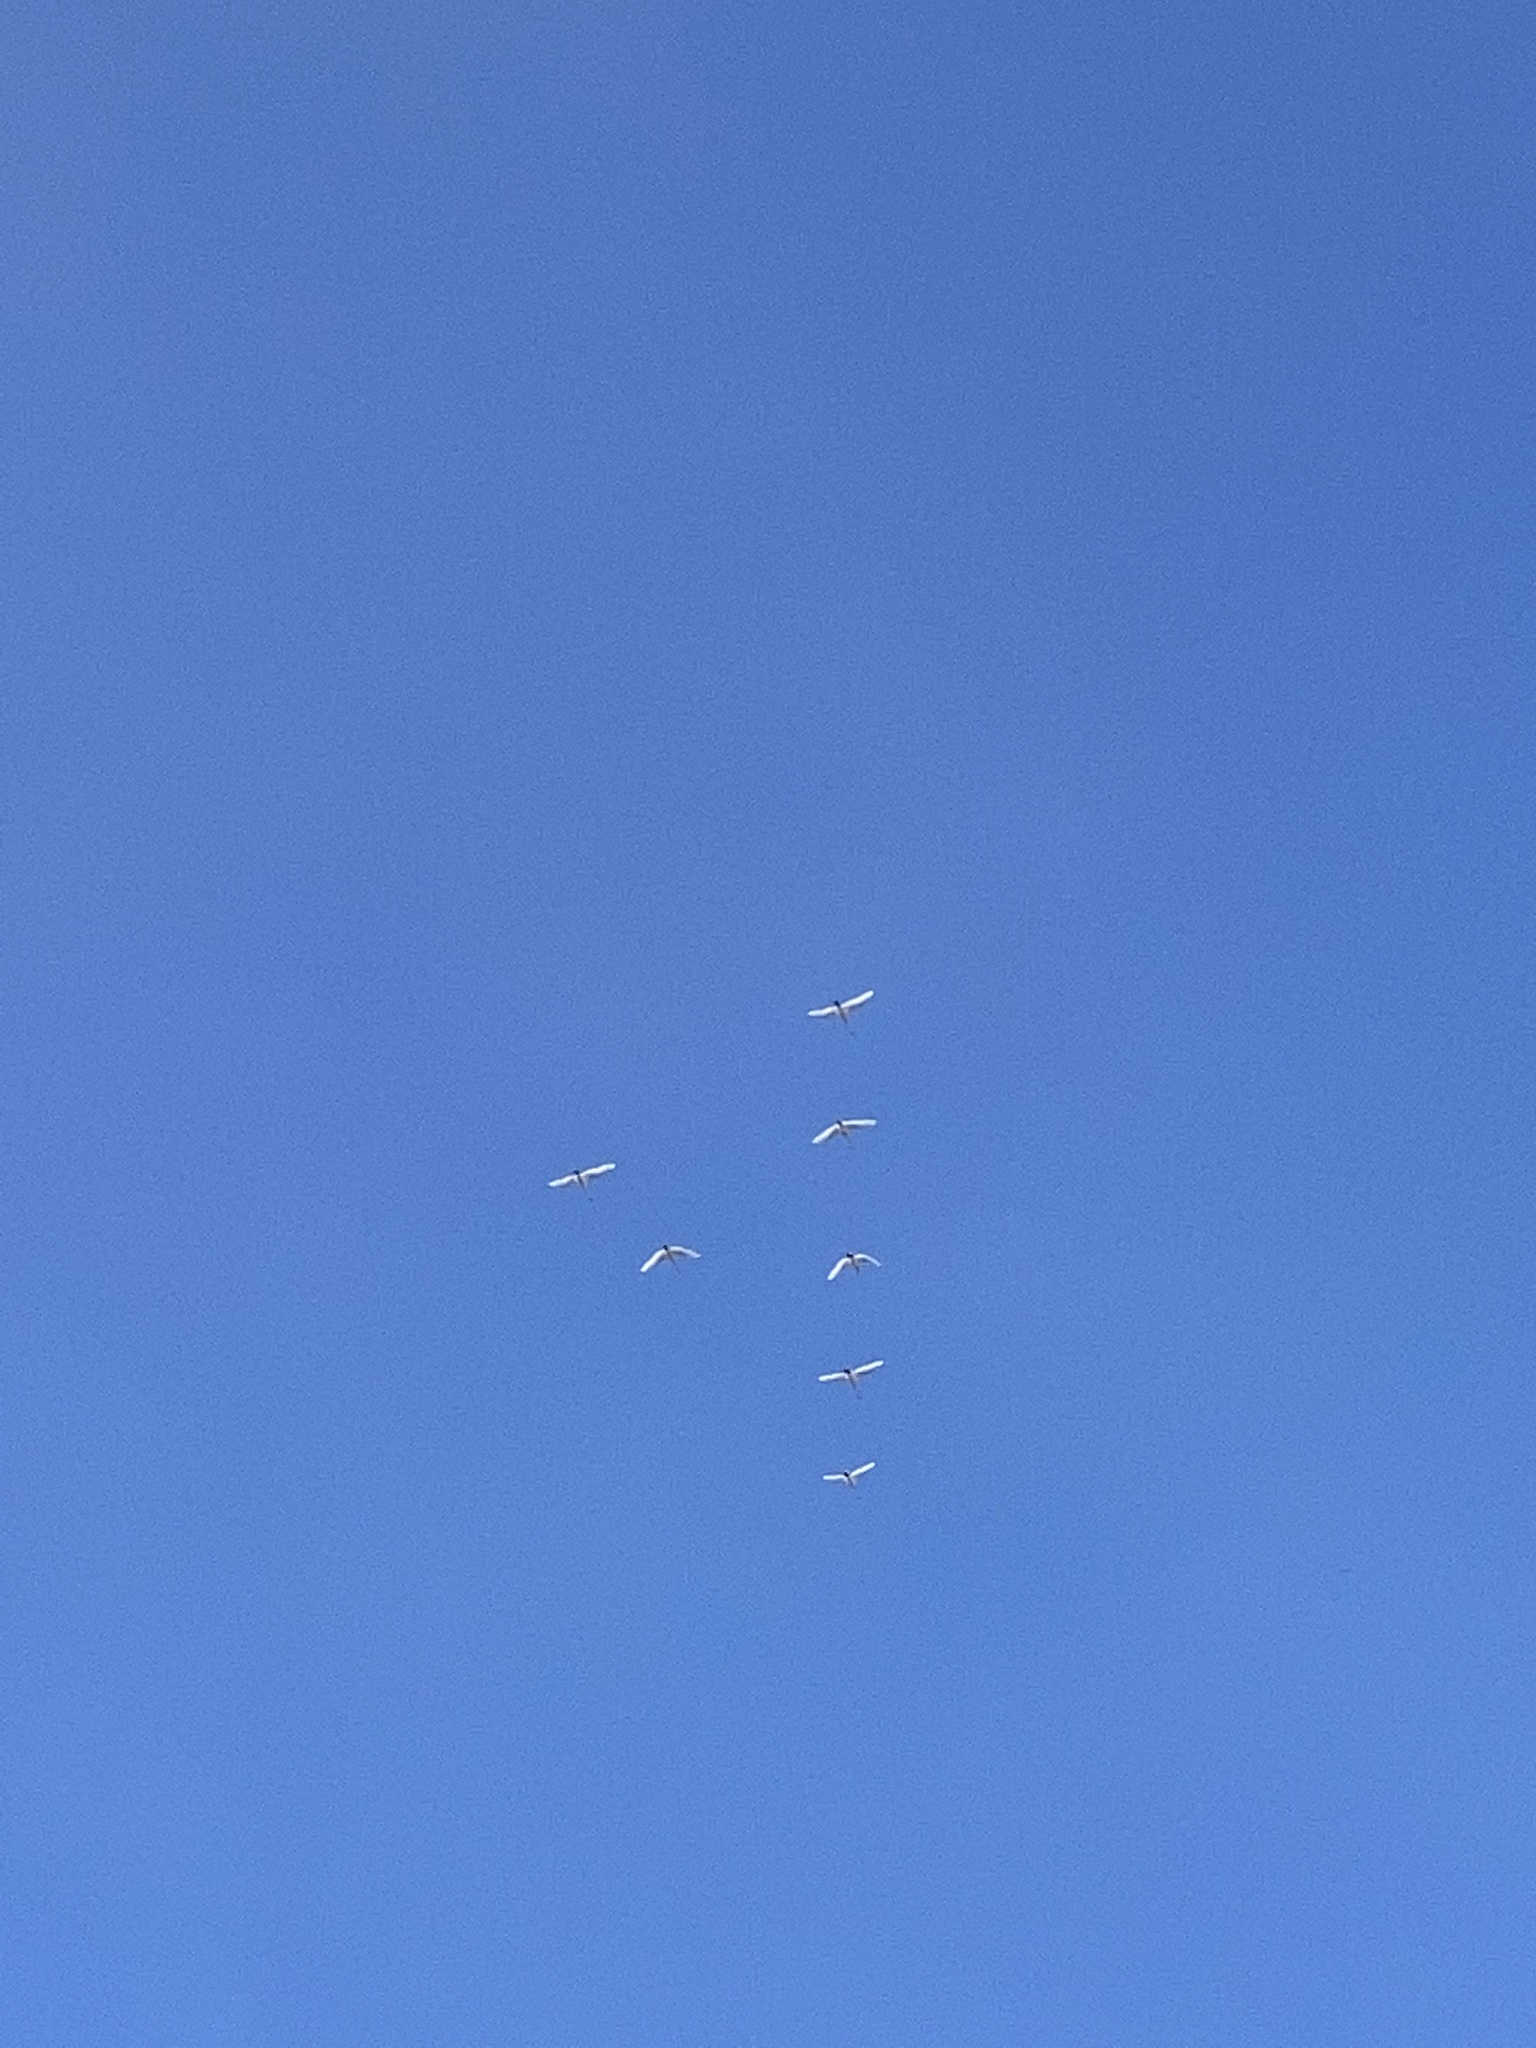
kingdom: Animalia
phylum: Chordata
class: Aves
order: Anseriformes
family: Anatidae
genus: Cygnus
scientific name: Cygnus columbianus
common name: Tundra swan
